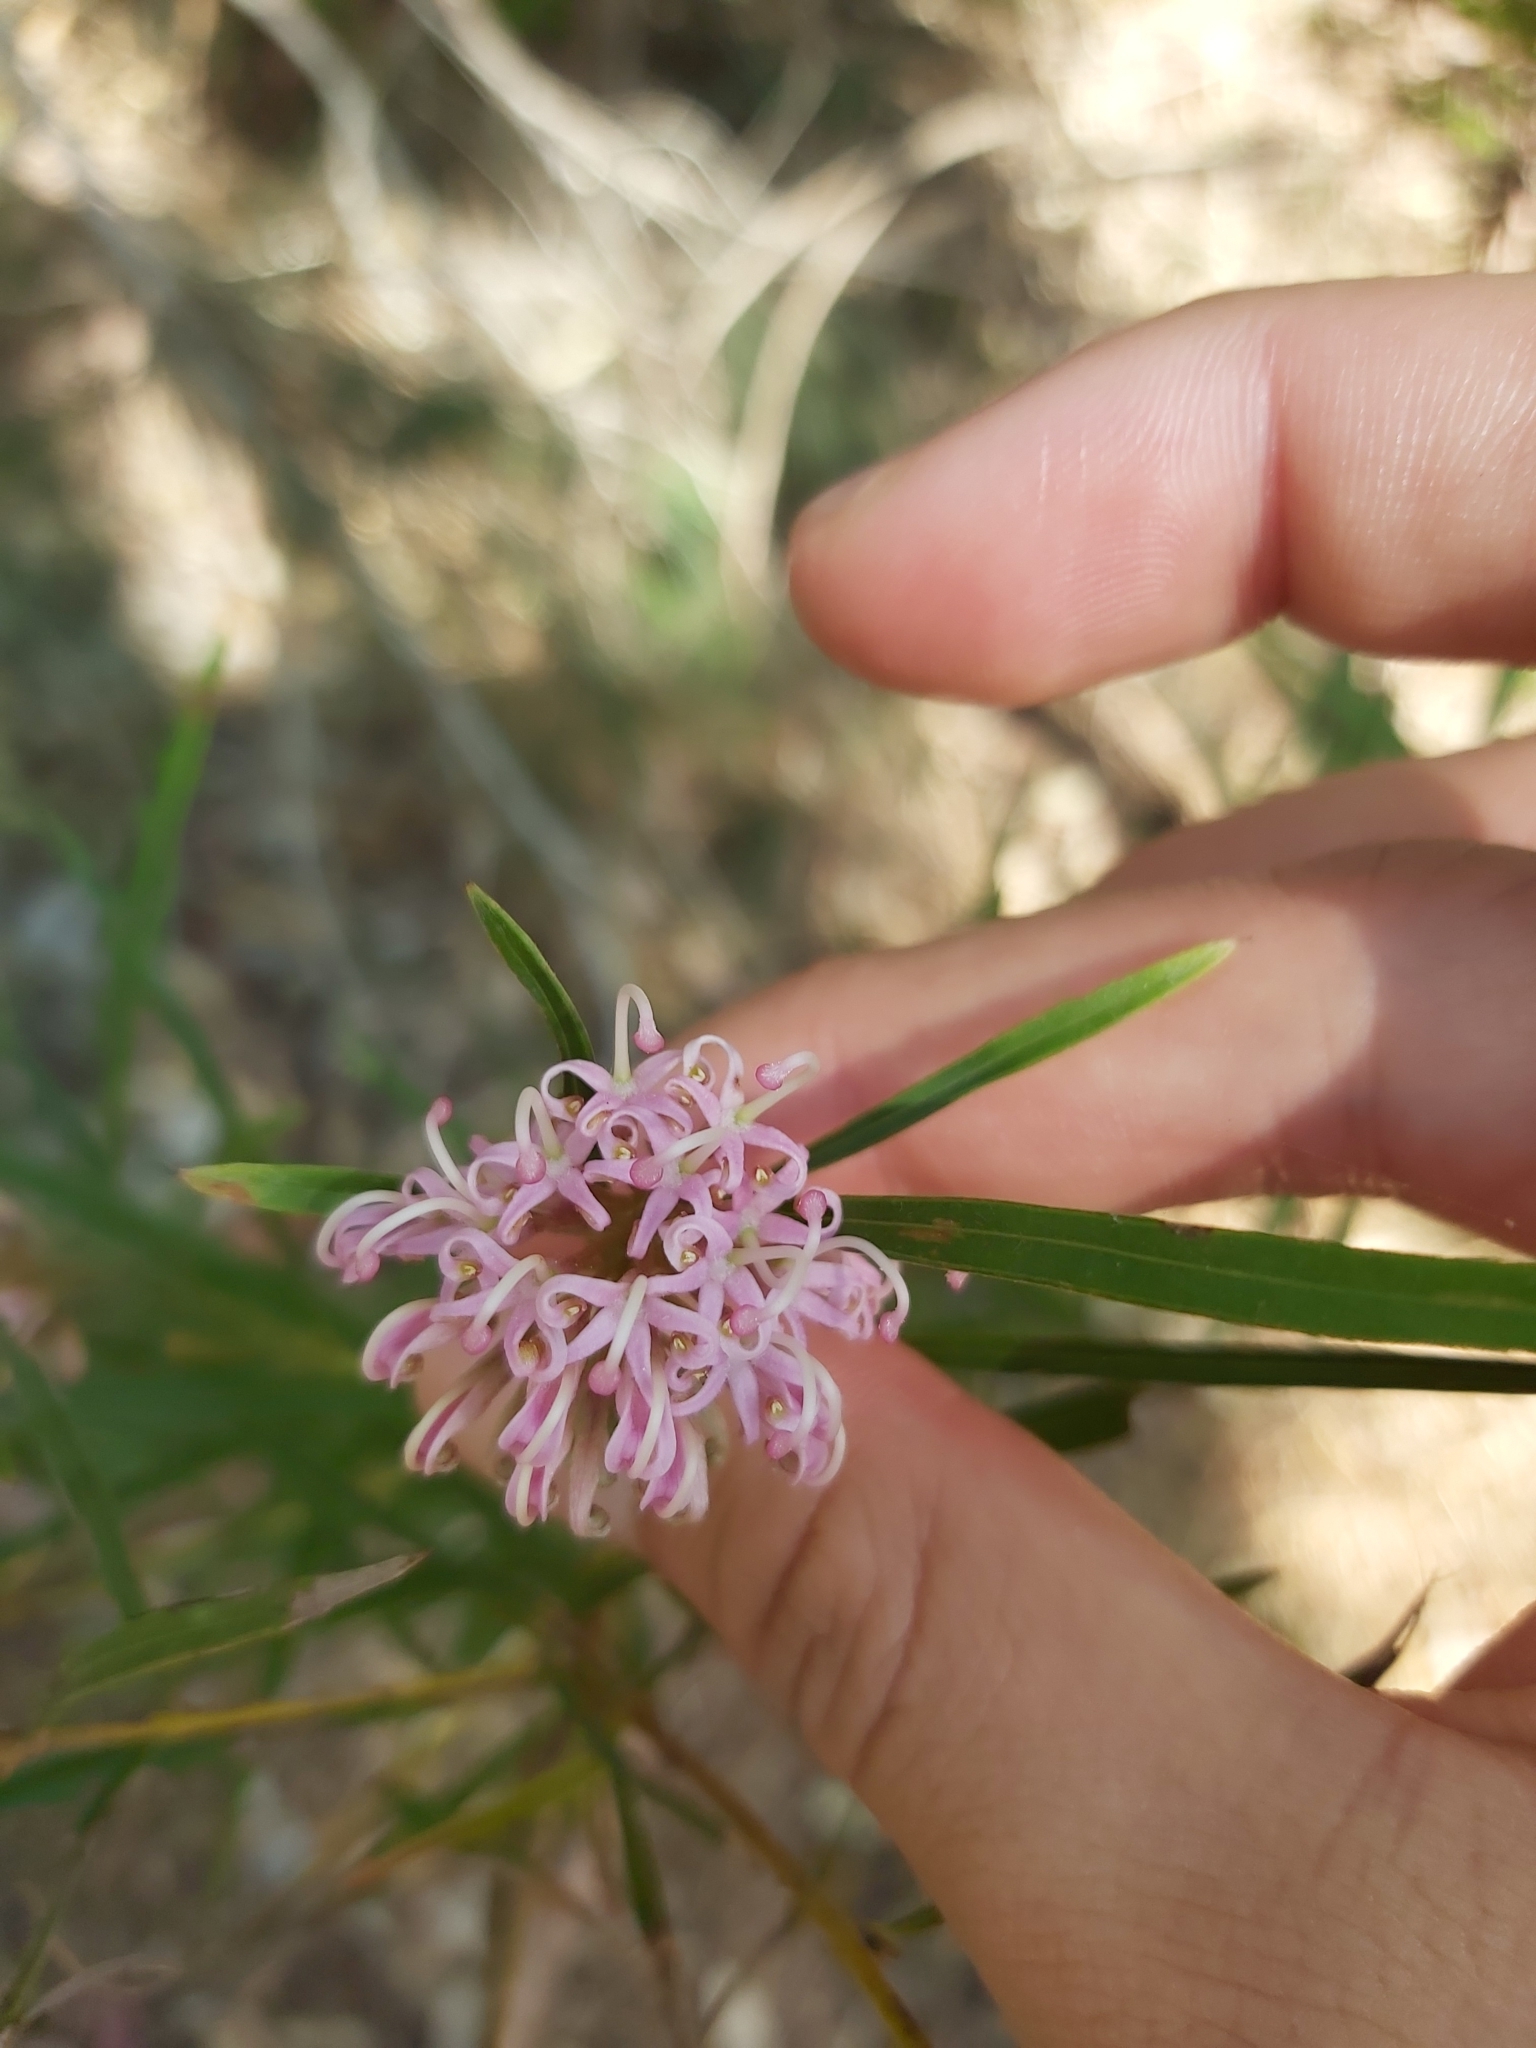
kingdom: Plantae
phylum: Tracheophyta
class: Magnoliopsida
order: Proteales
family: Proteaceae
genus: Grevillea
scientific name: Grevillea linearifolia
